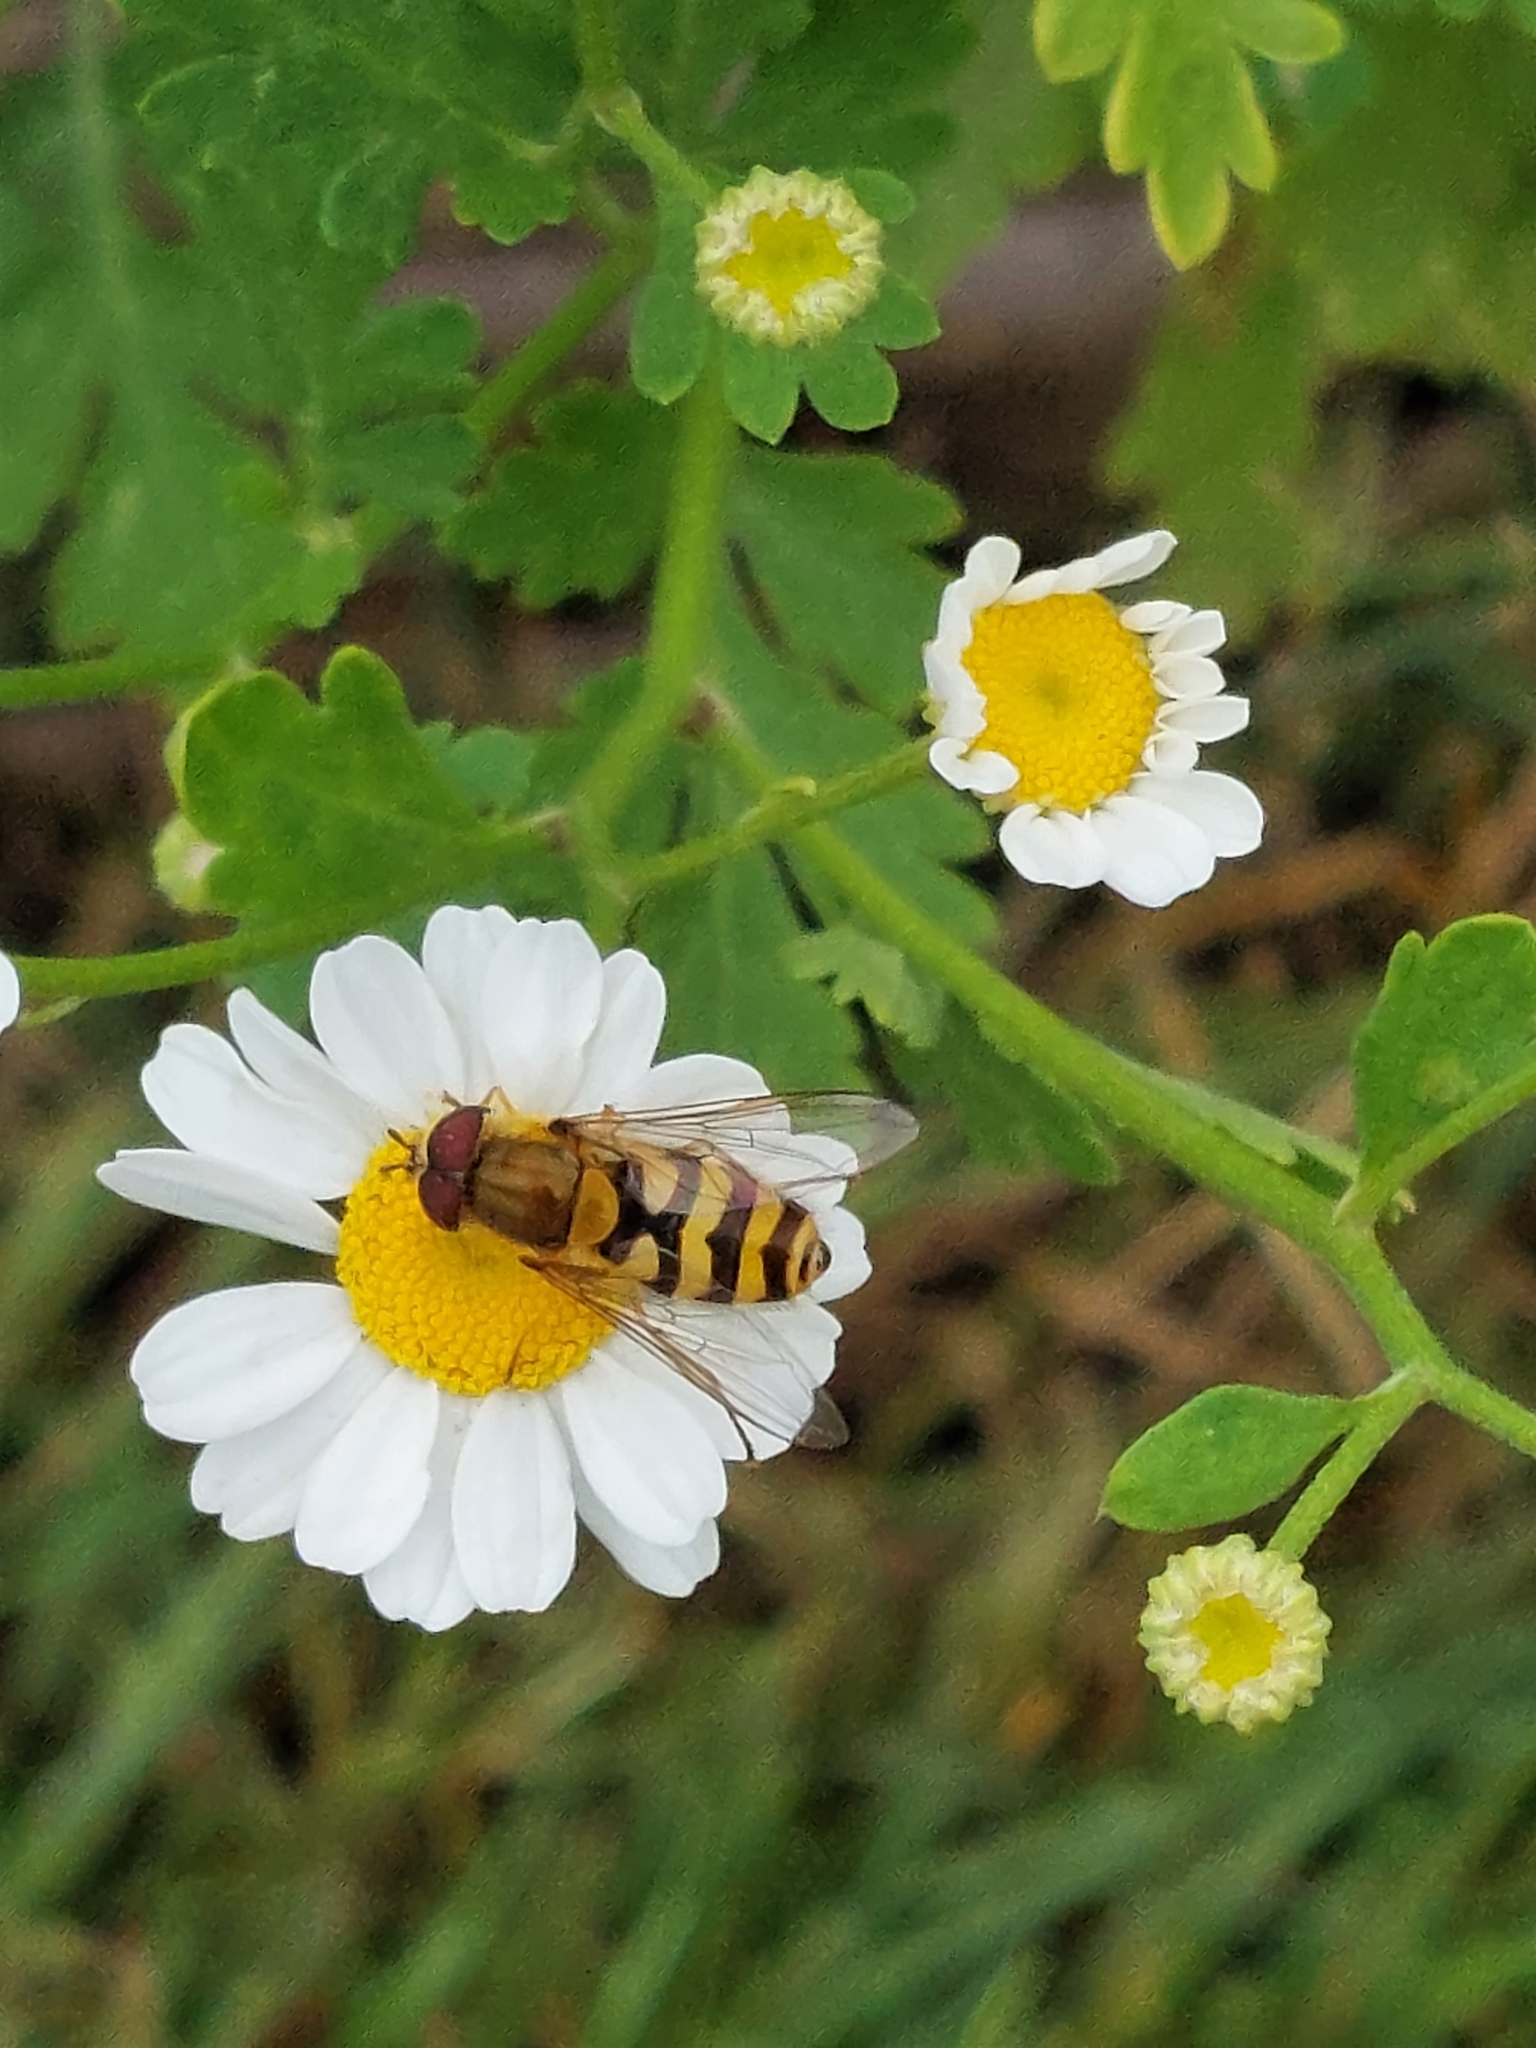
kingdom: Animalia
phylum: Arthropoda
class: Insecta
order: Diptera
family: Syrphidae
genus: Syrphus
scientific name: Syrphus
